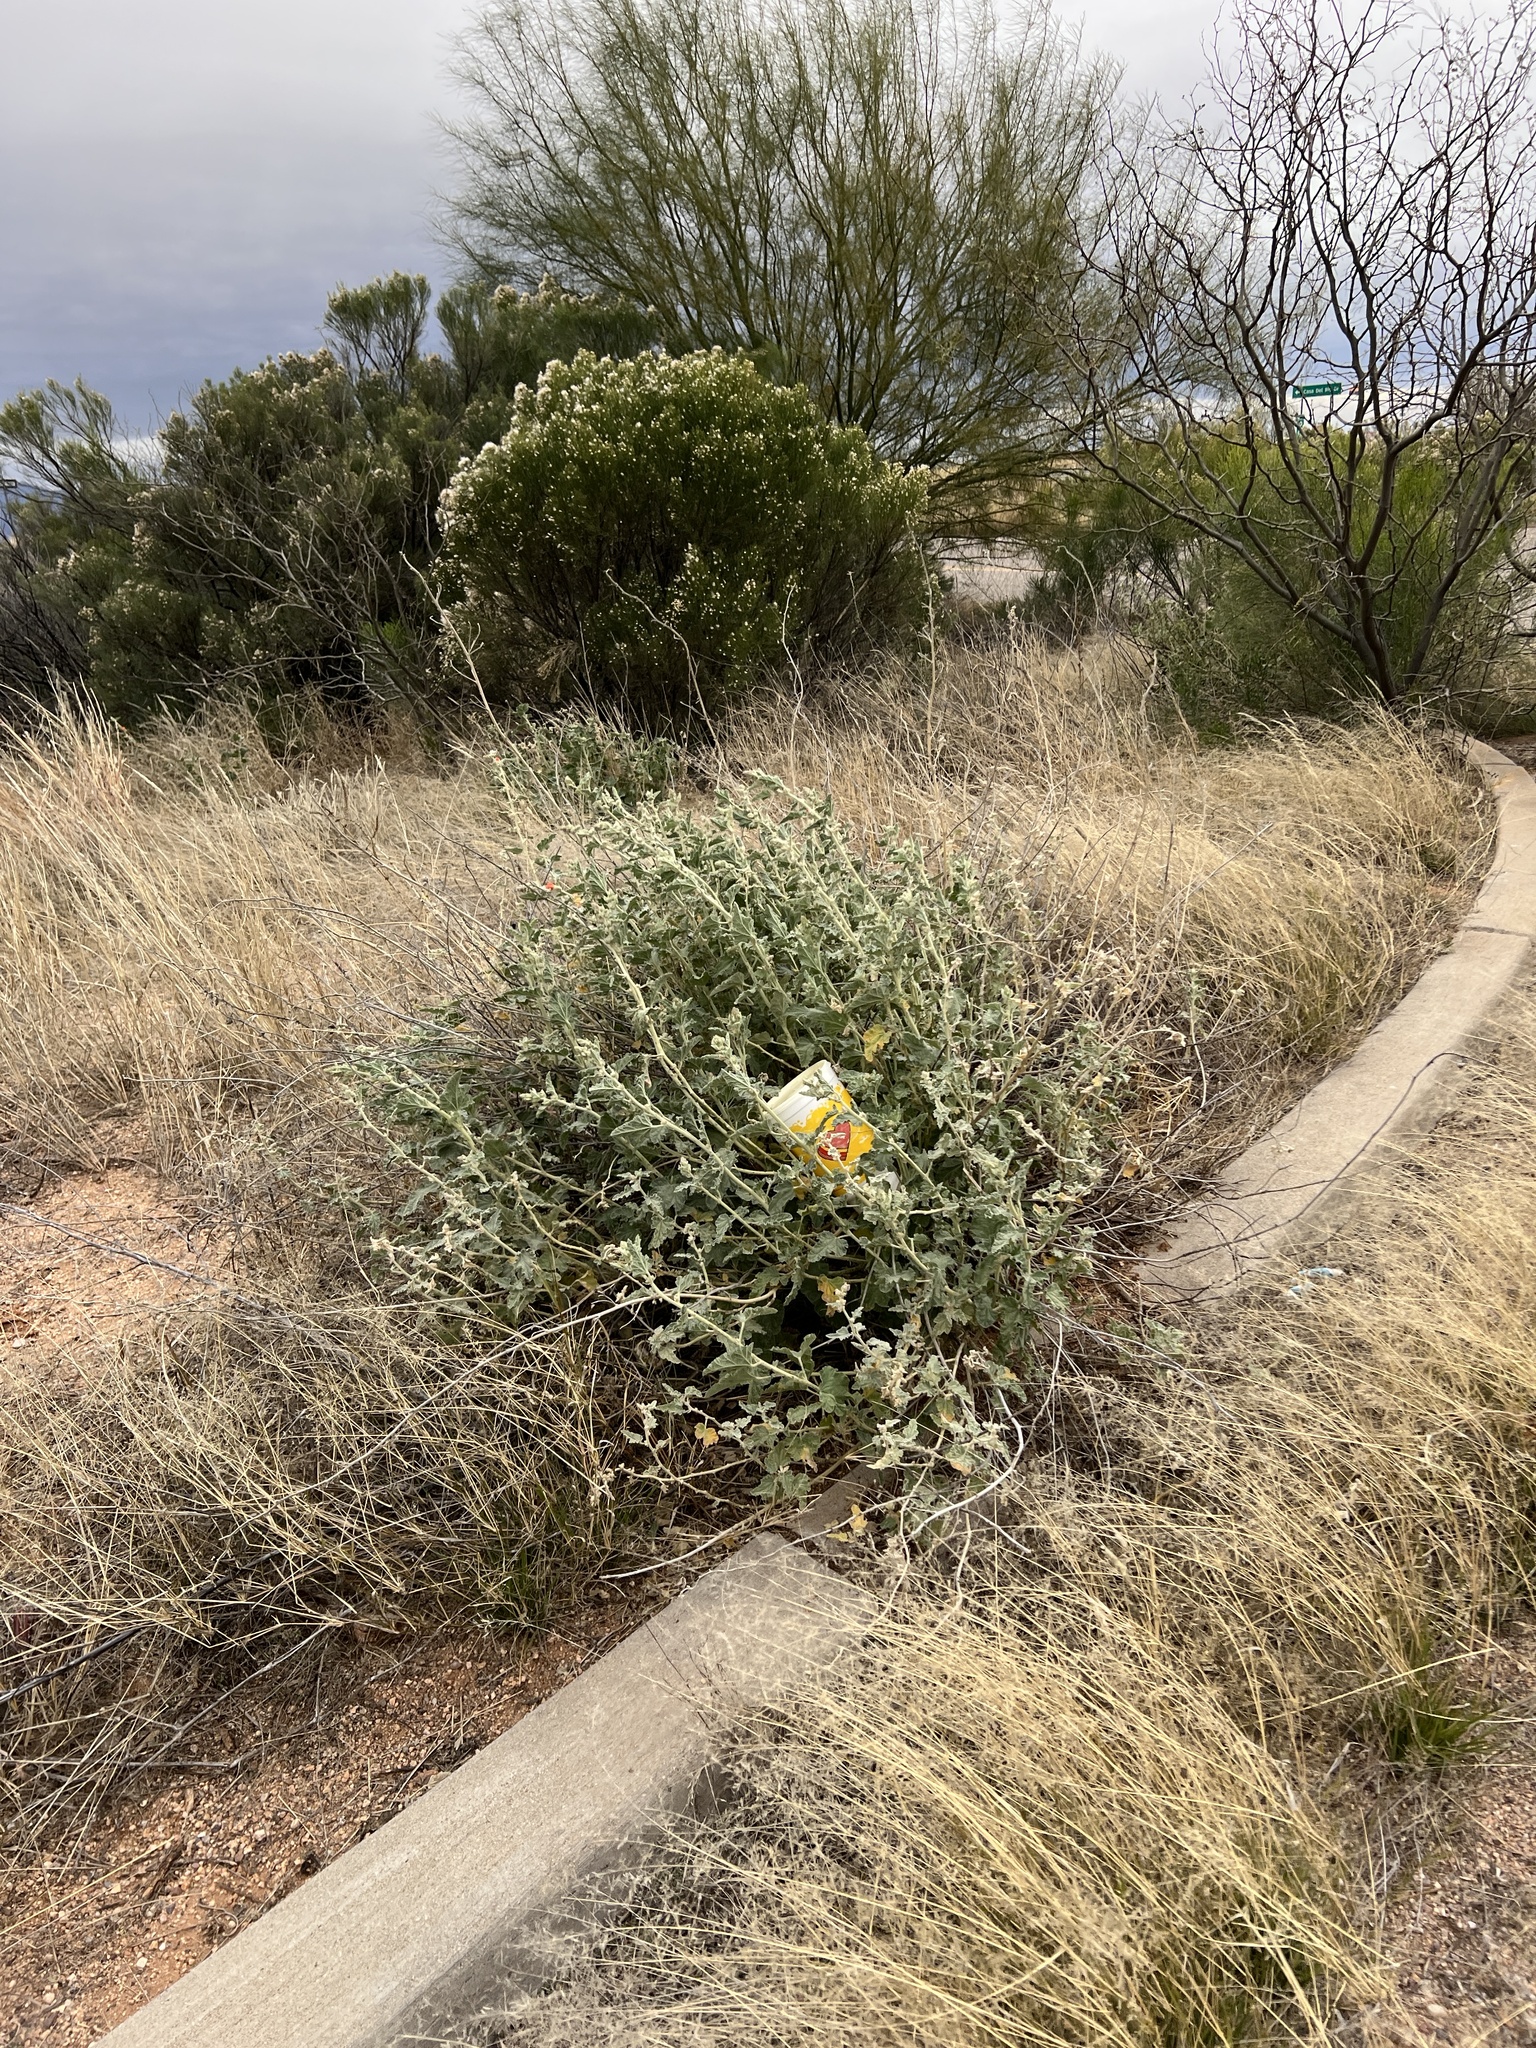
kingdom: Plantae
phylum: Tracheophyta
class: Magnoliopsida
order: Malvales
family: Malvaceae
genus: Sphaeralcea
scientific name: Sphaeralcea ambigua
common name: Apricot globe-mallow
